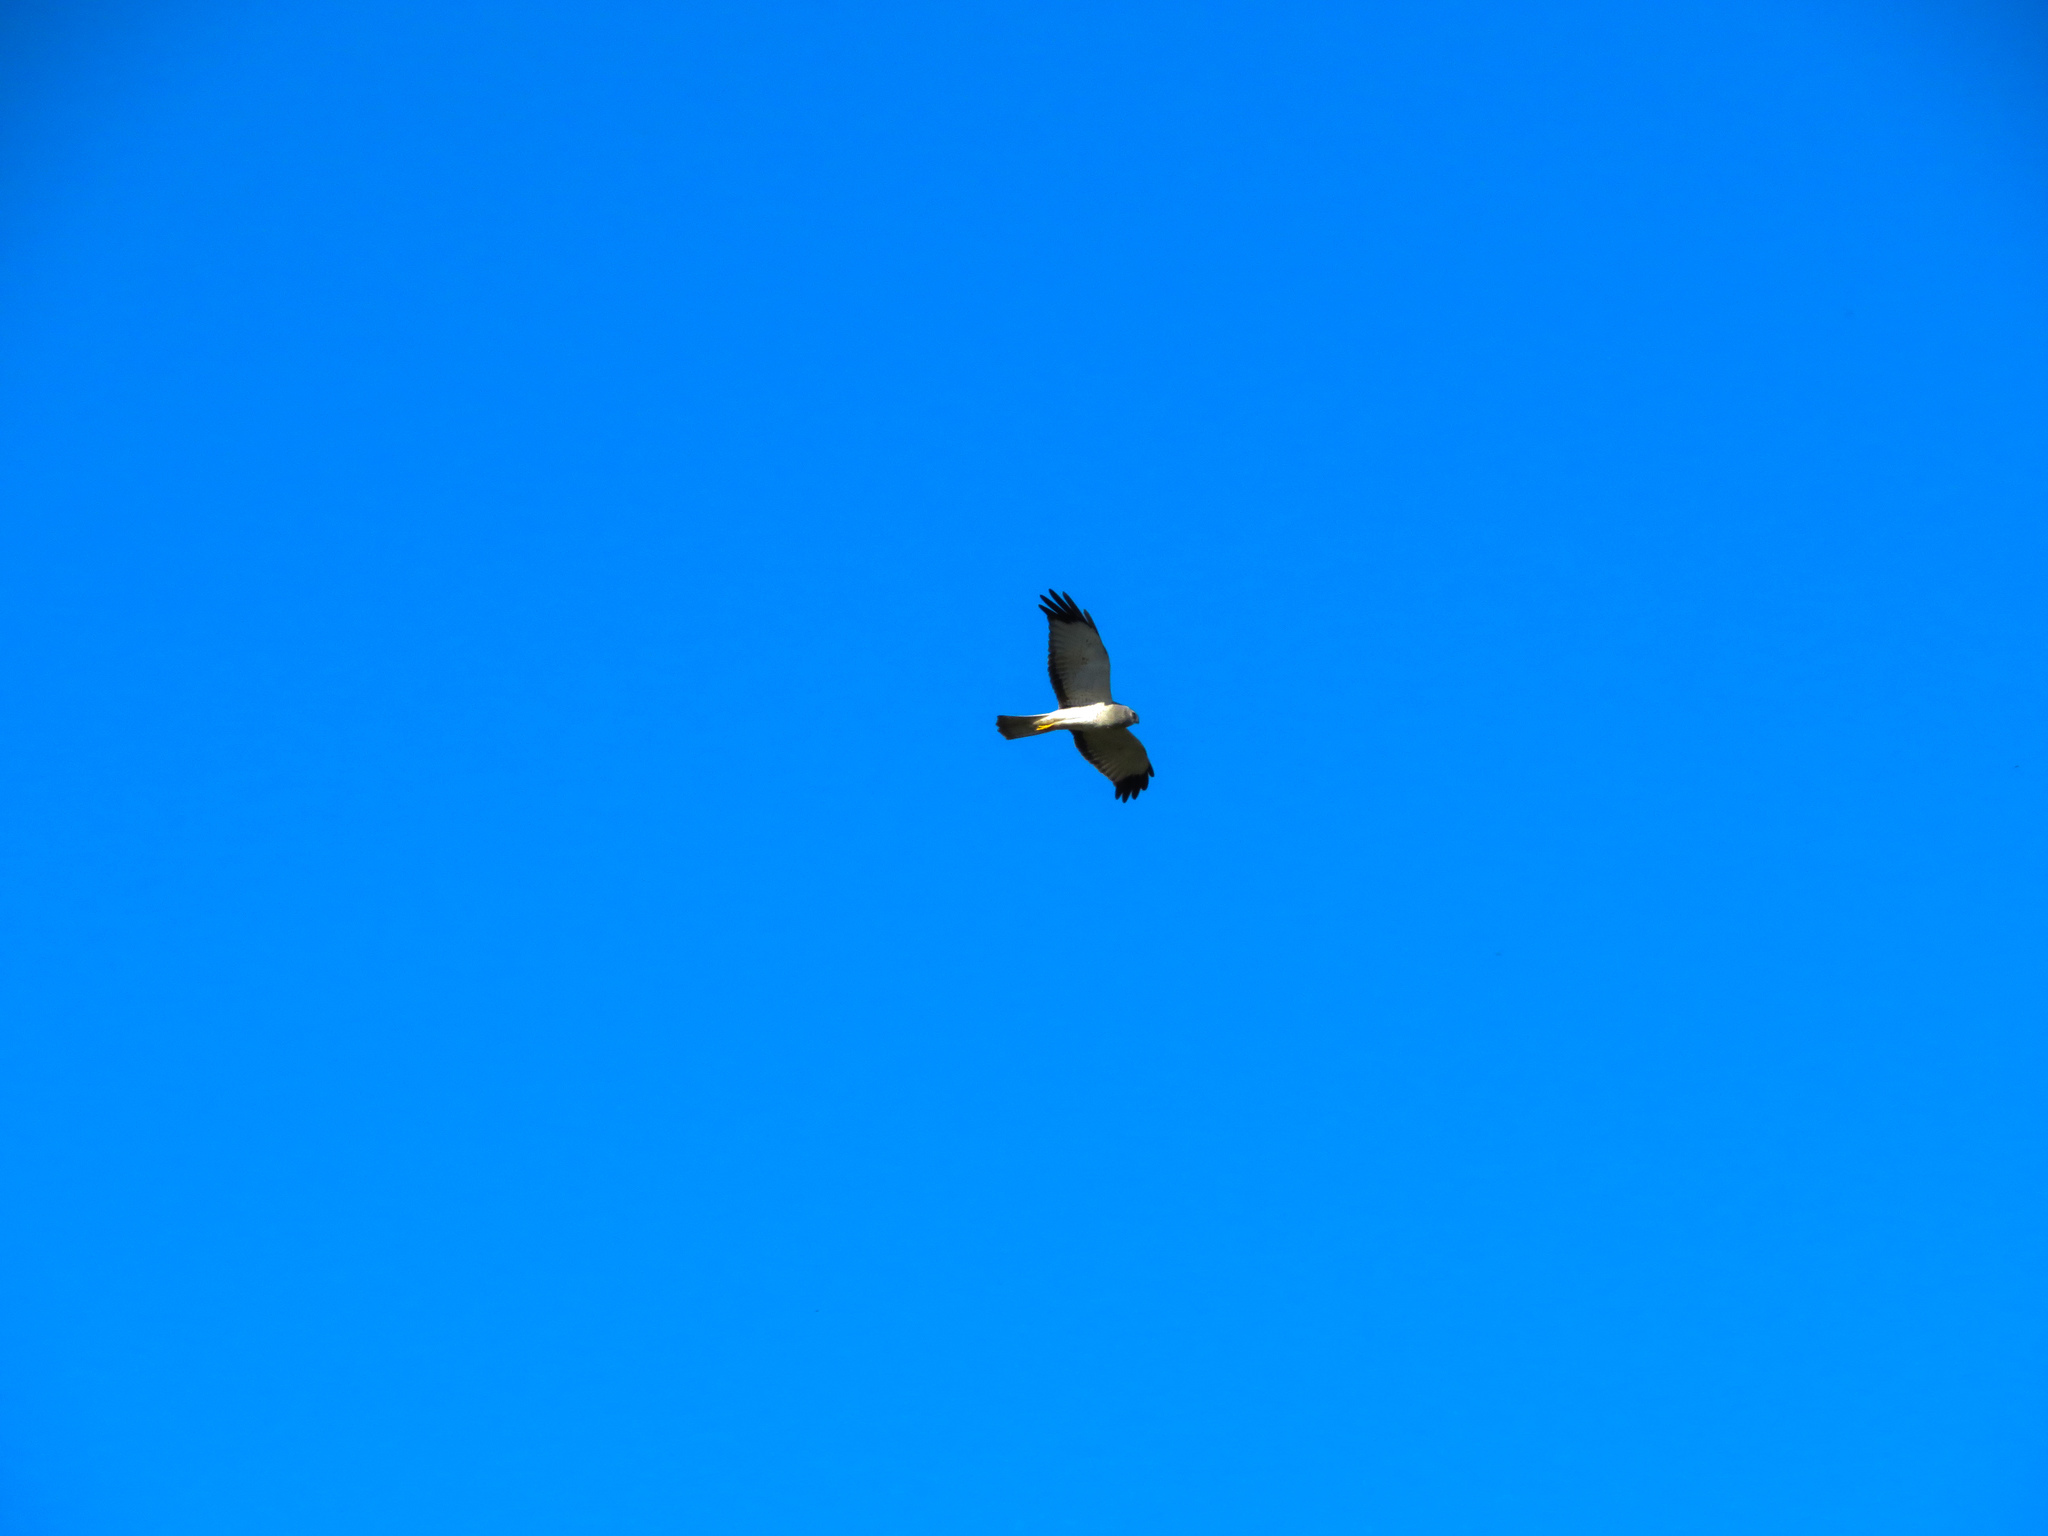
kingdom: Animalia
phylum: Chordata
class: Aves
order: Accipitriformes
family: Accipitridae
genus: Circus
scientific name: Circus cyaneus
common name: Hen harrier
